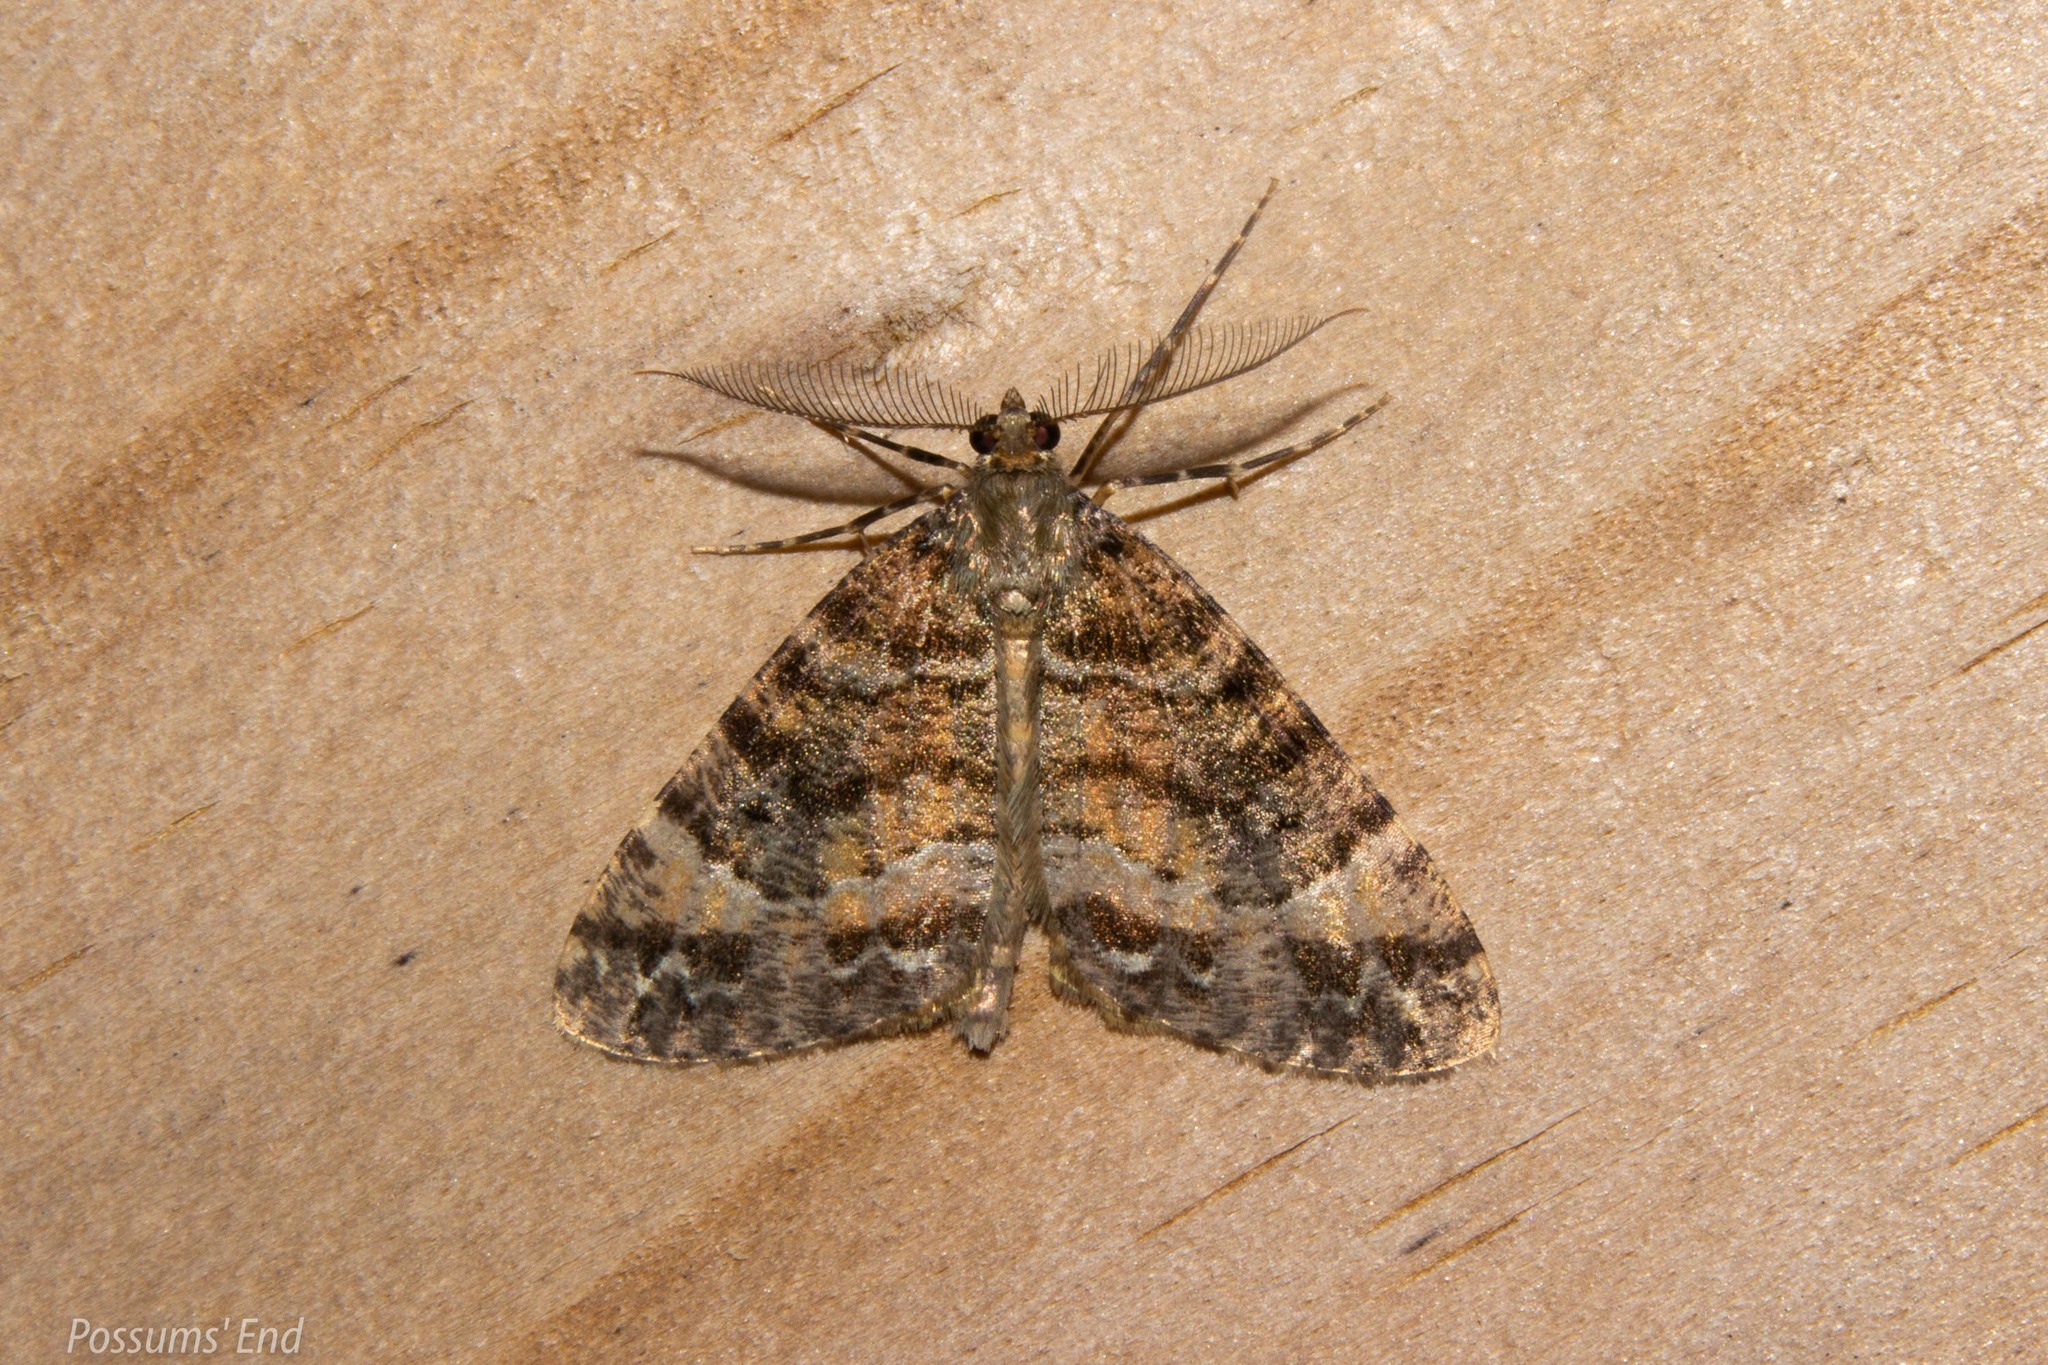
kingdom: Animalia
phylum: Arthropoda
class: Insecta
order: Lepidoptera
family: Geometridae
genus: Pseudocoremia
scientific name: Pseudocoremia productata
